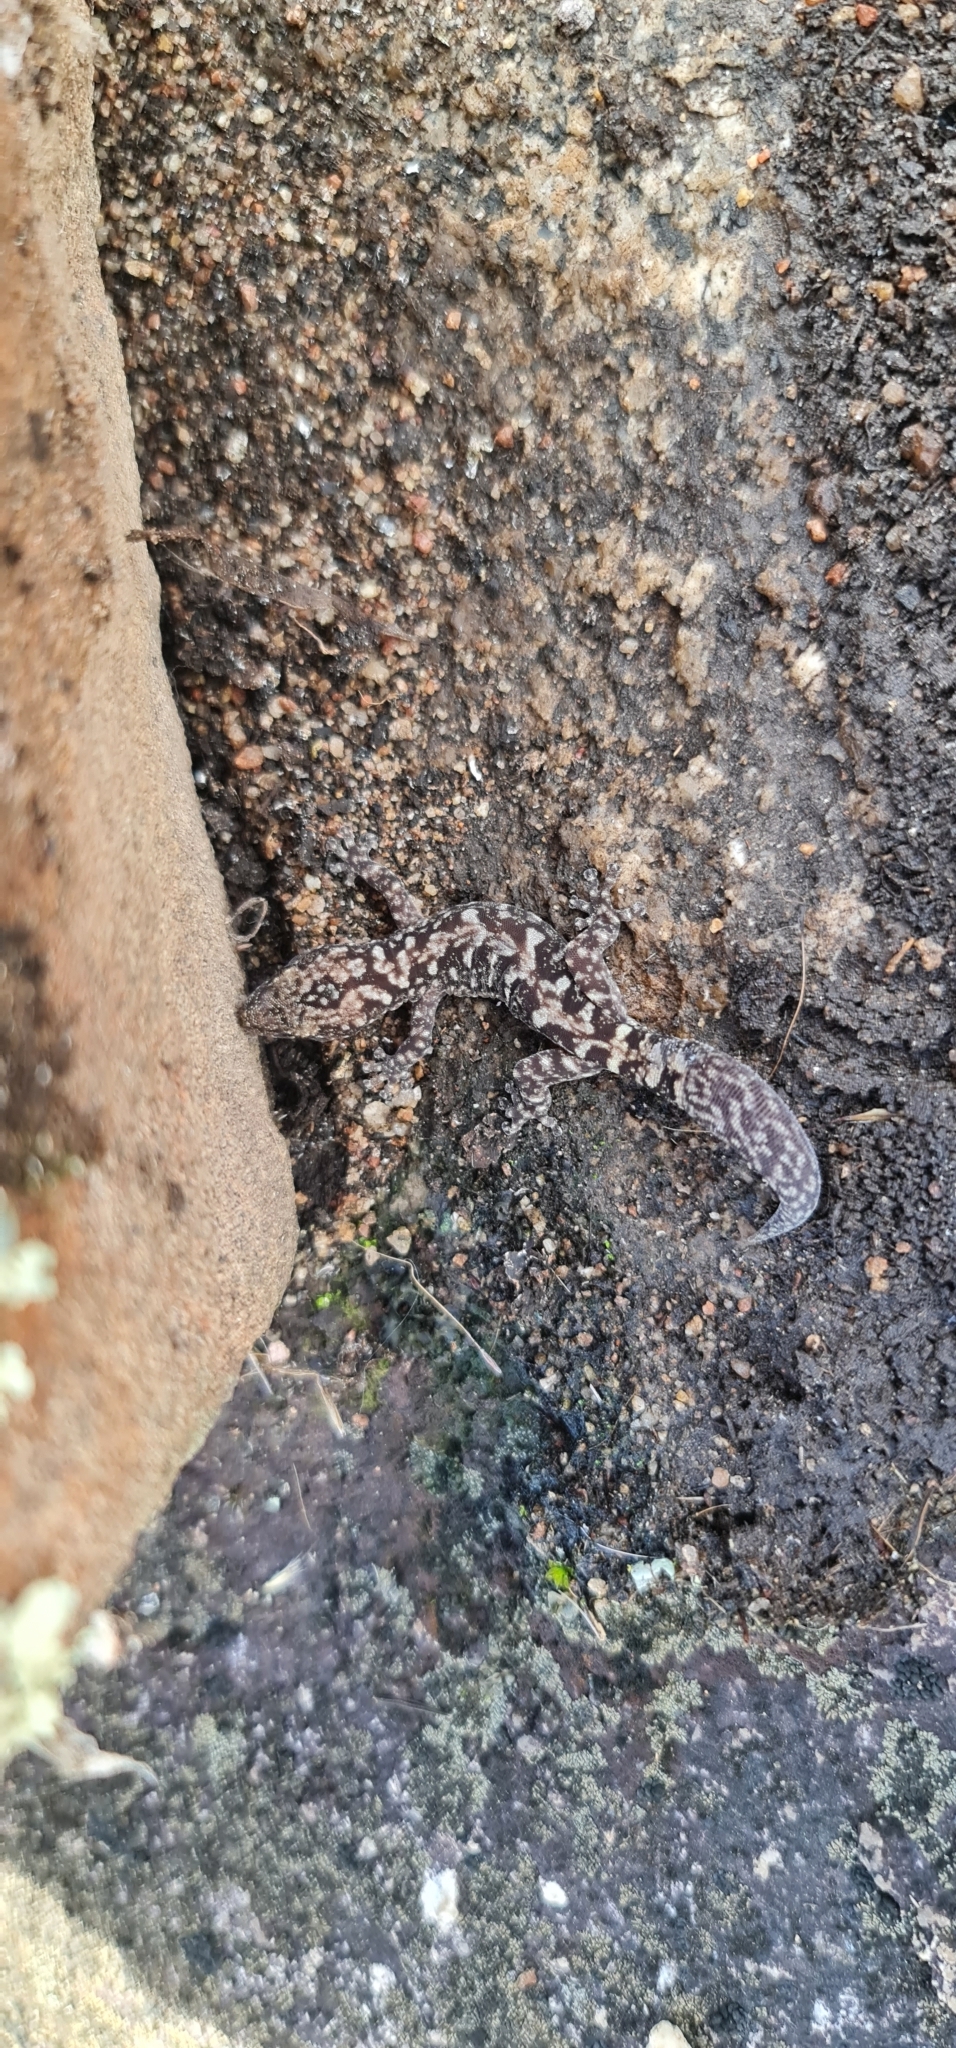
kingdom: Animalia
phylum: Chordata
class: Squamata
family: Diplodactylidae
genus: Amalosia
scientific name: Amalosia lesueurii
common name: Lesueur's gecko
